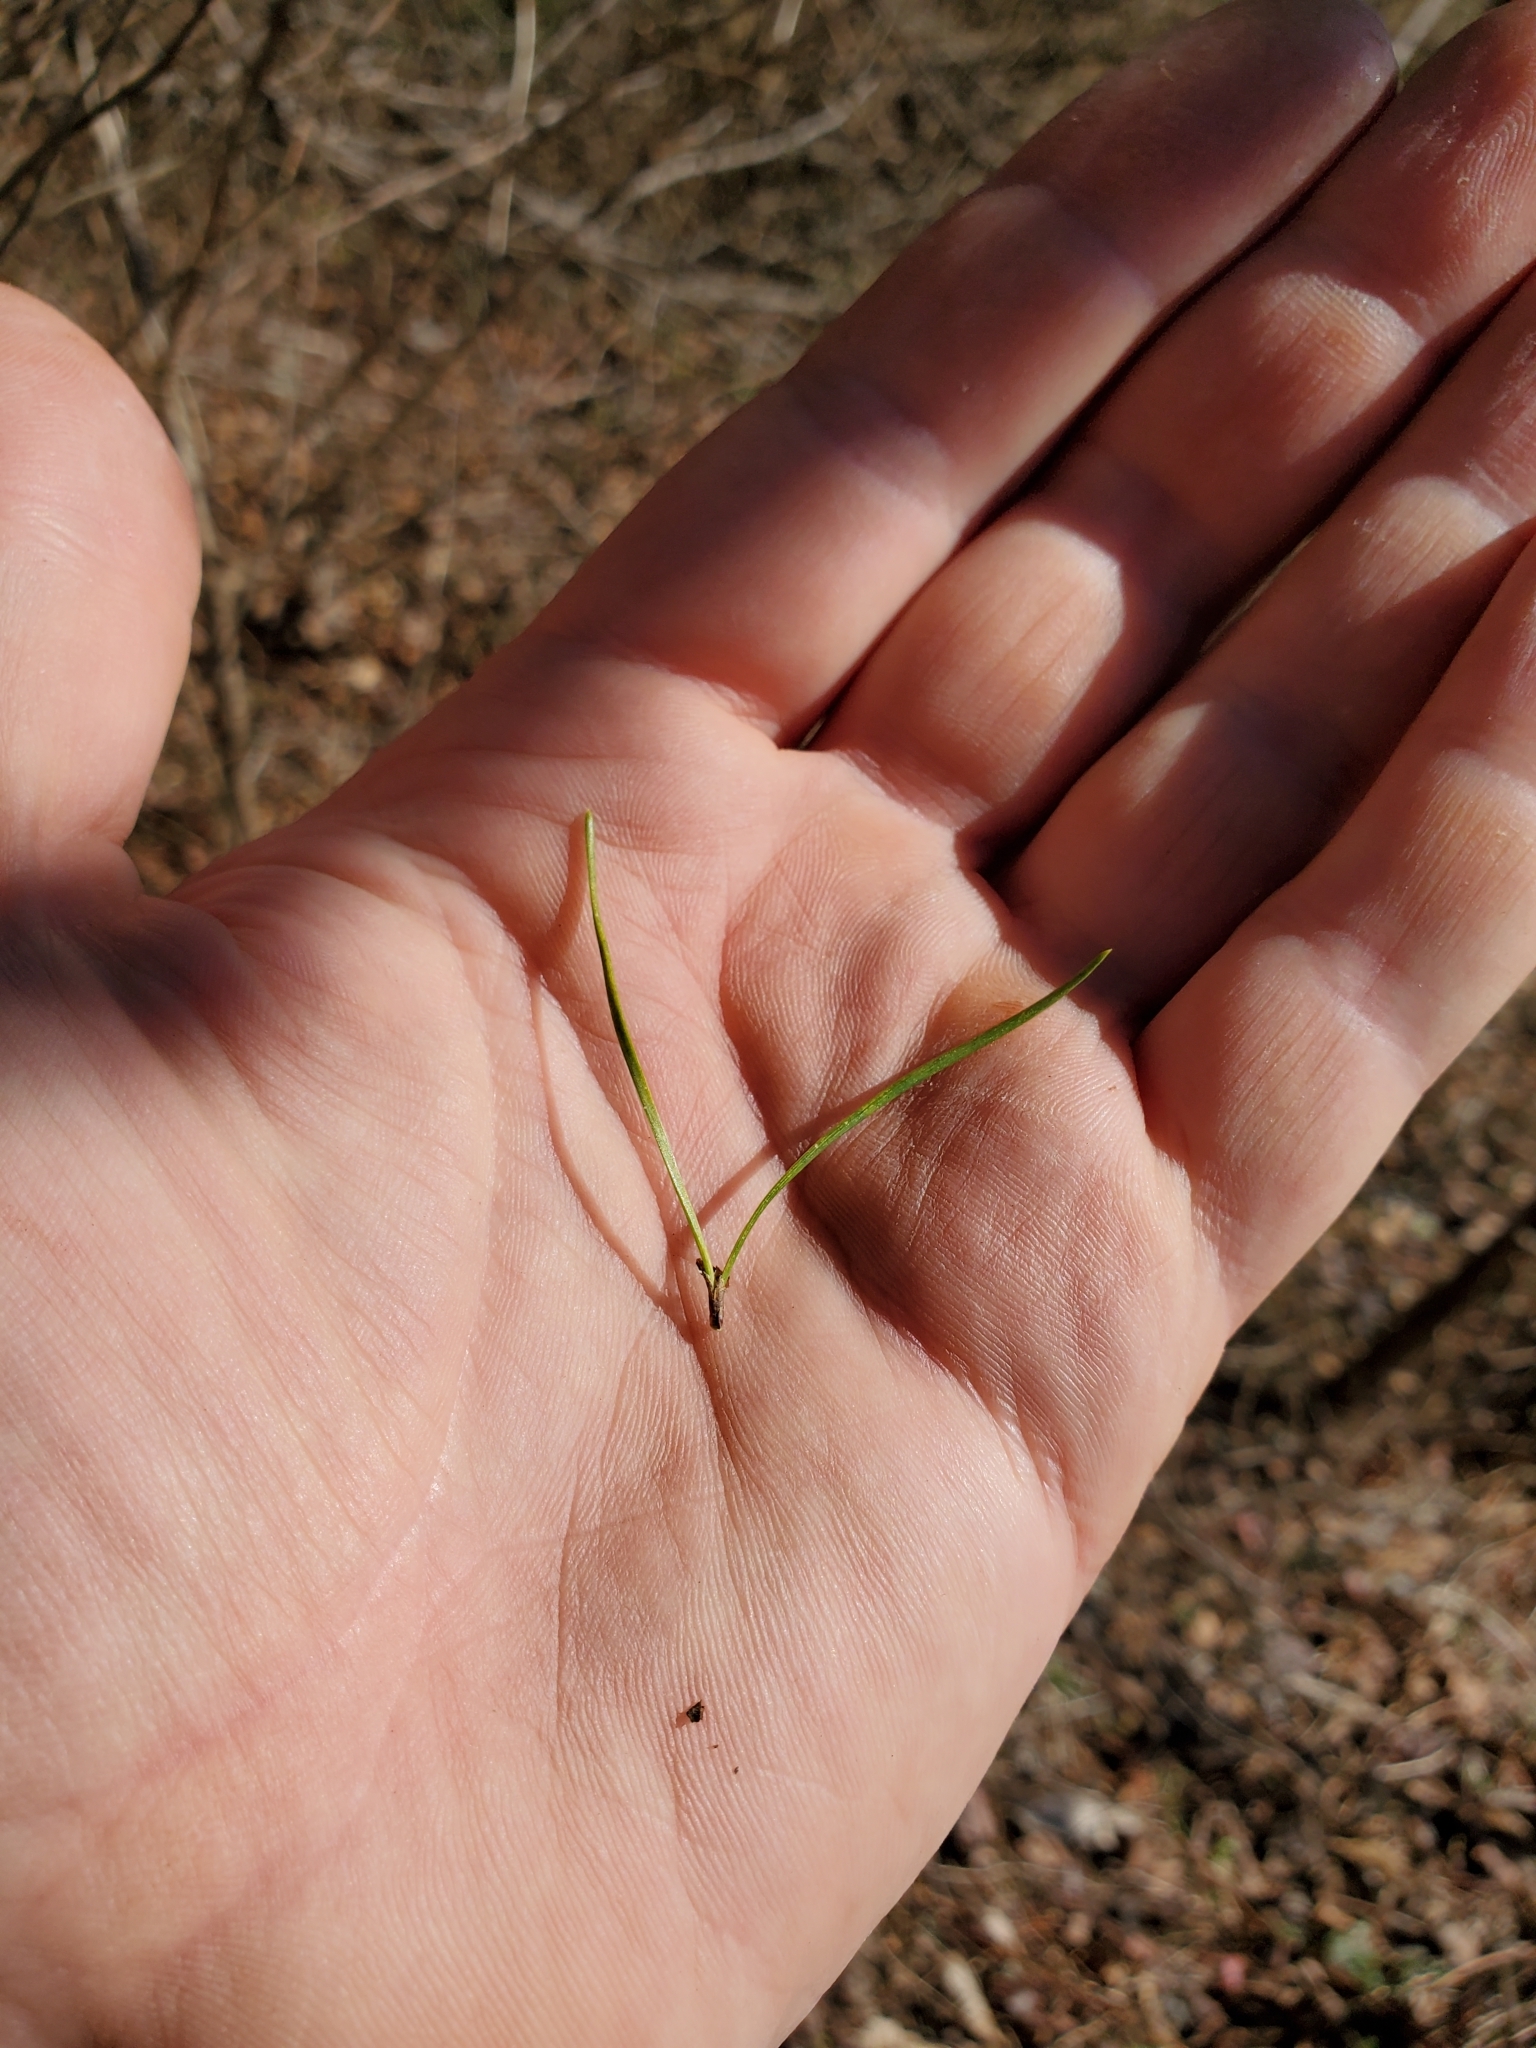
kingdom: Plantae
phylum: Tracheophyta
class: Pinopsida
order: Pinales
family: Pinaceae
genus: Pinus
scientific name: Pinus virginiana
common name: Scrub pine
